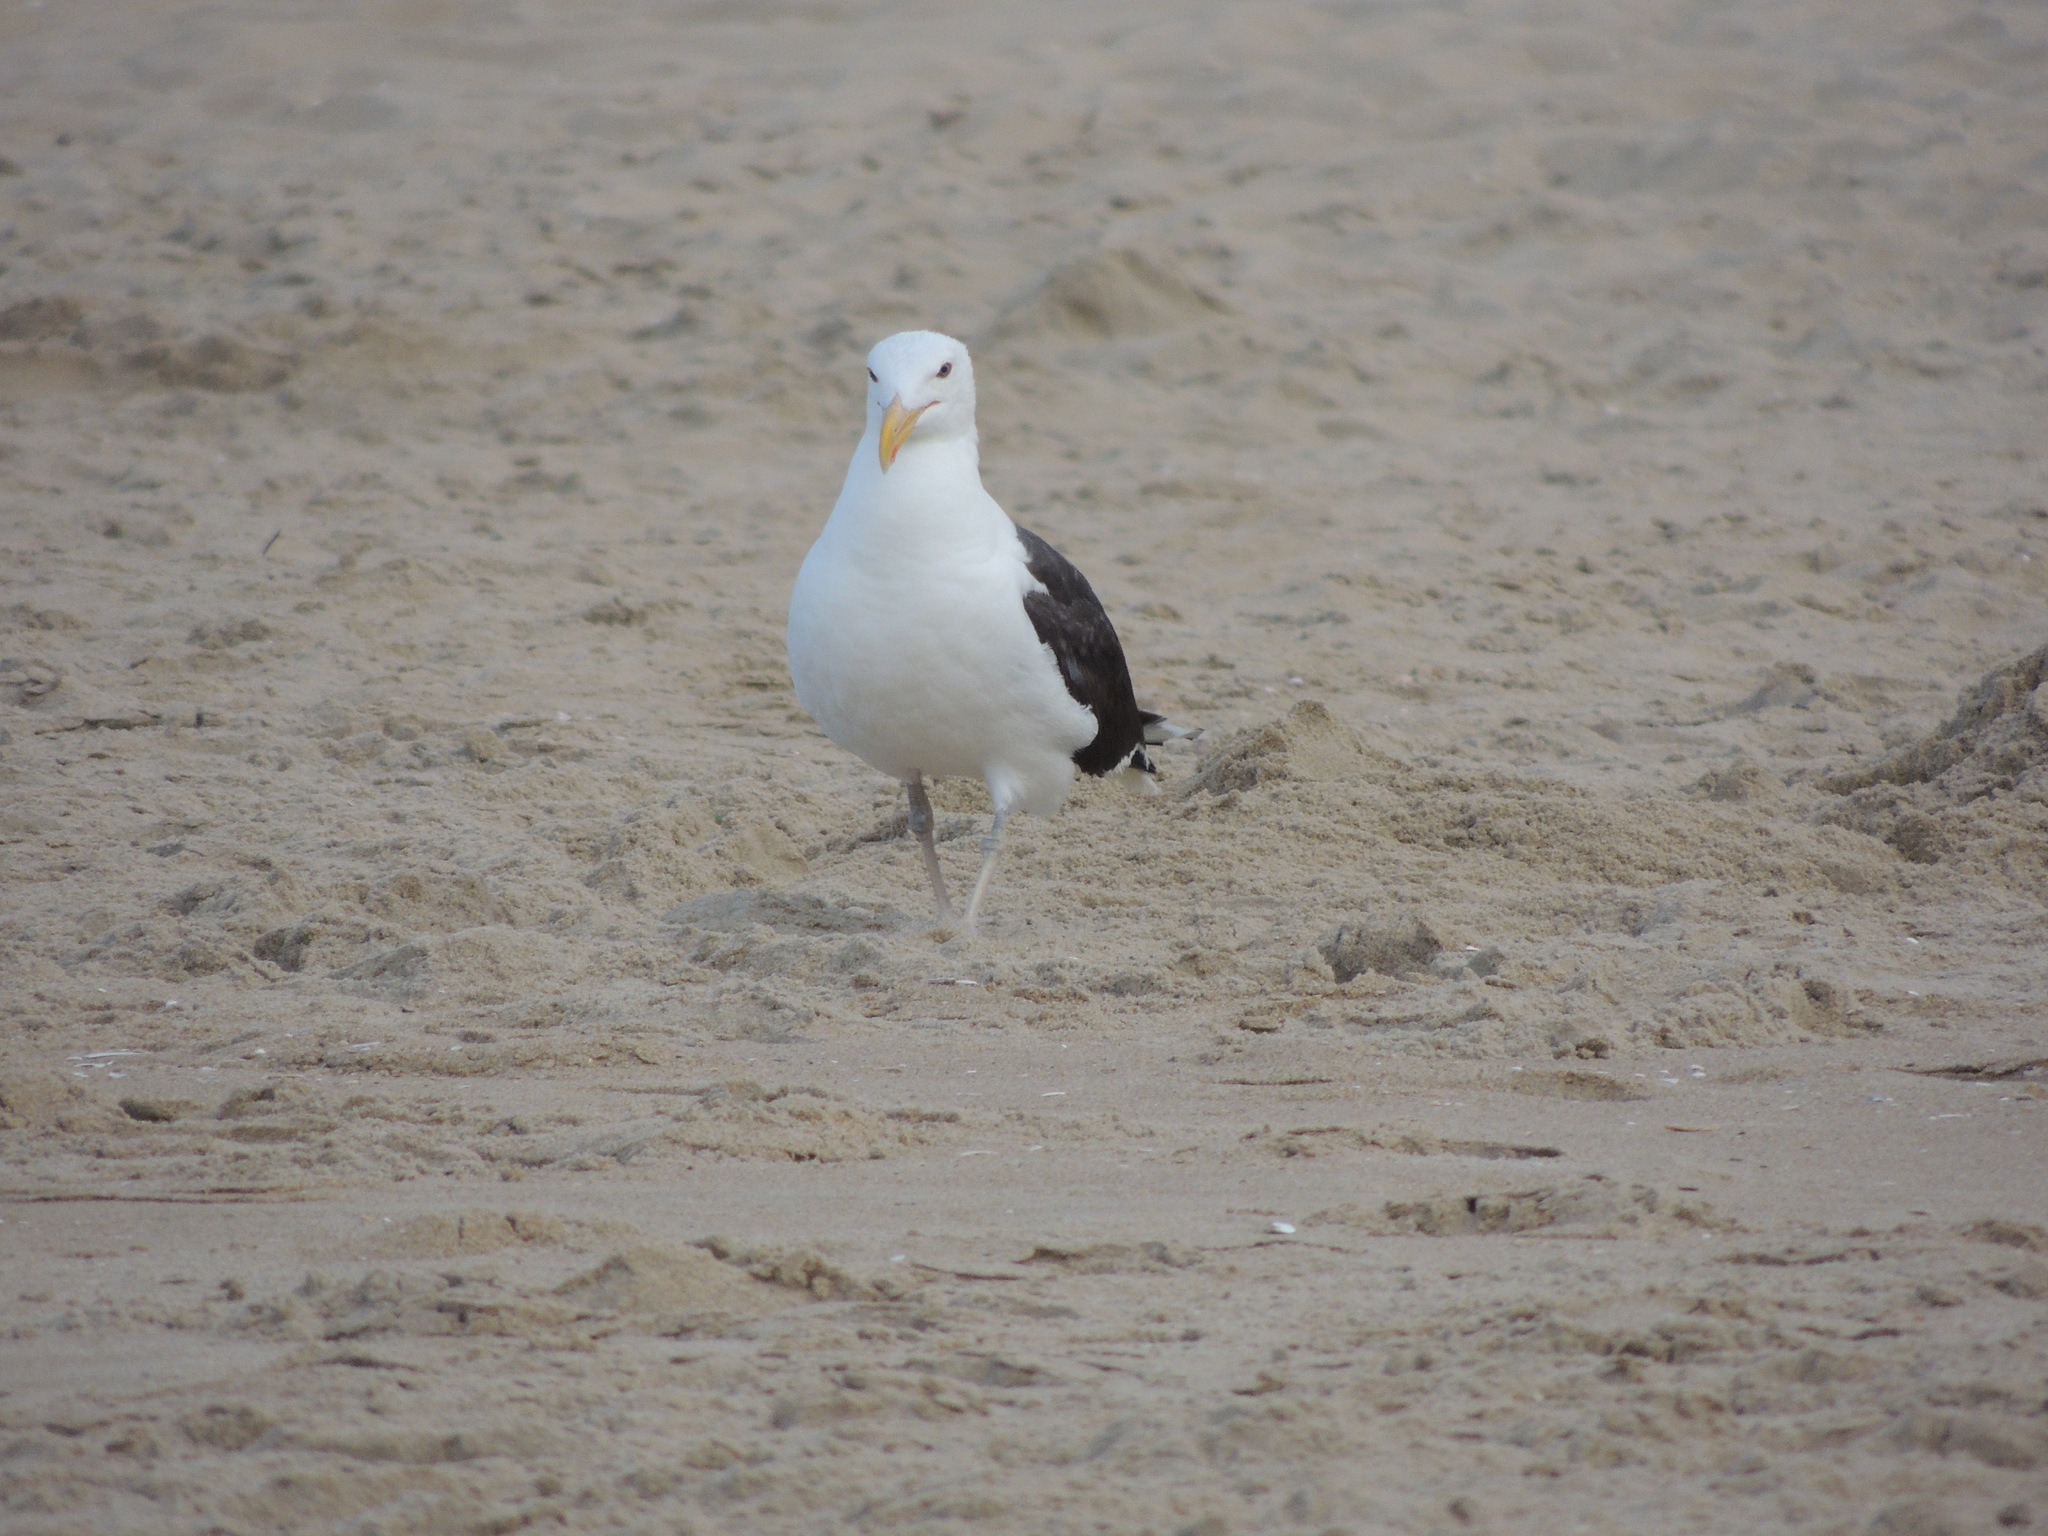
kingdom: Animalia
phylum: Chordata
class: Aves
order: Charadriiformes
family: Laridae
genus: Larus
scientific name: Larus marinus
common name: Great black-backed gull
